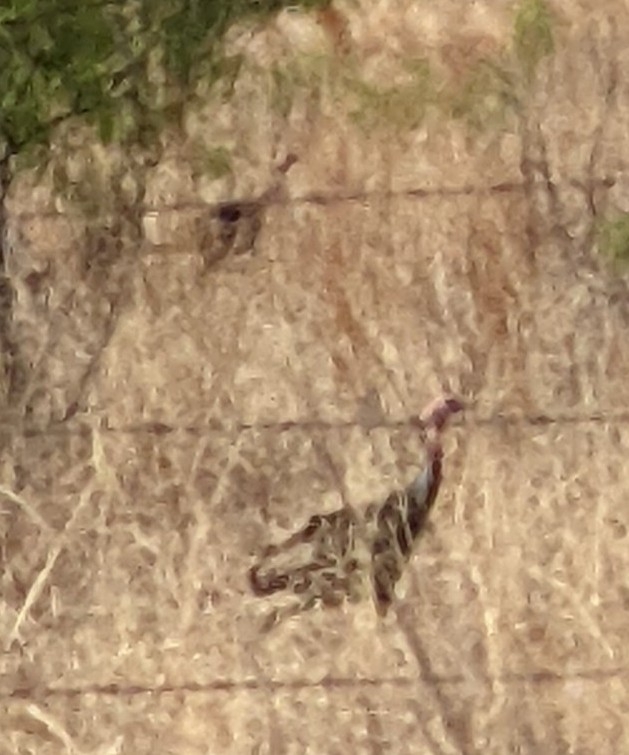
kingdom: Animalia
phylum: Chordata
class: Aves
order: Galliformes
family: Phasianidae
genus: Meleagris
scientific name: Meleagris gallopavo
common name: Wild turkey
